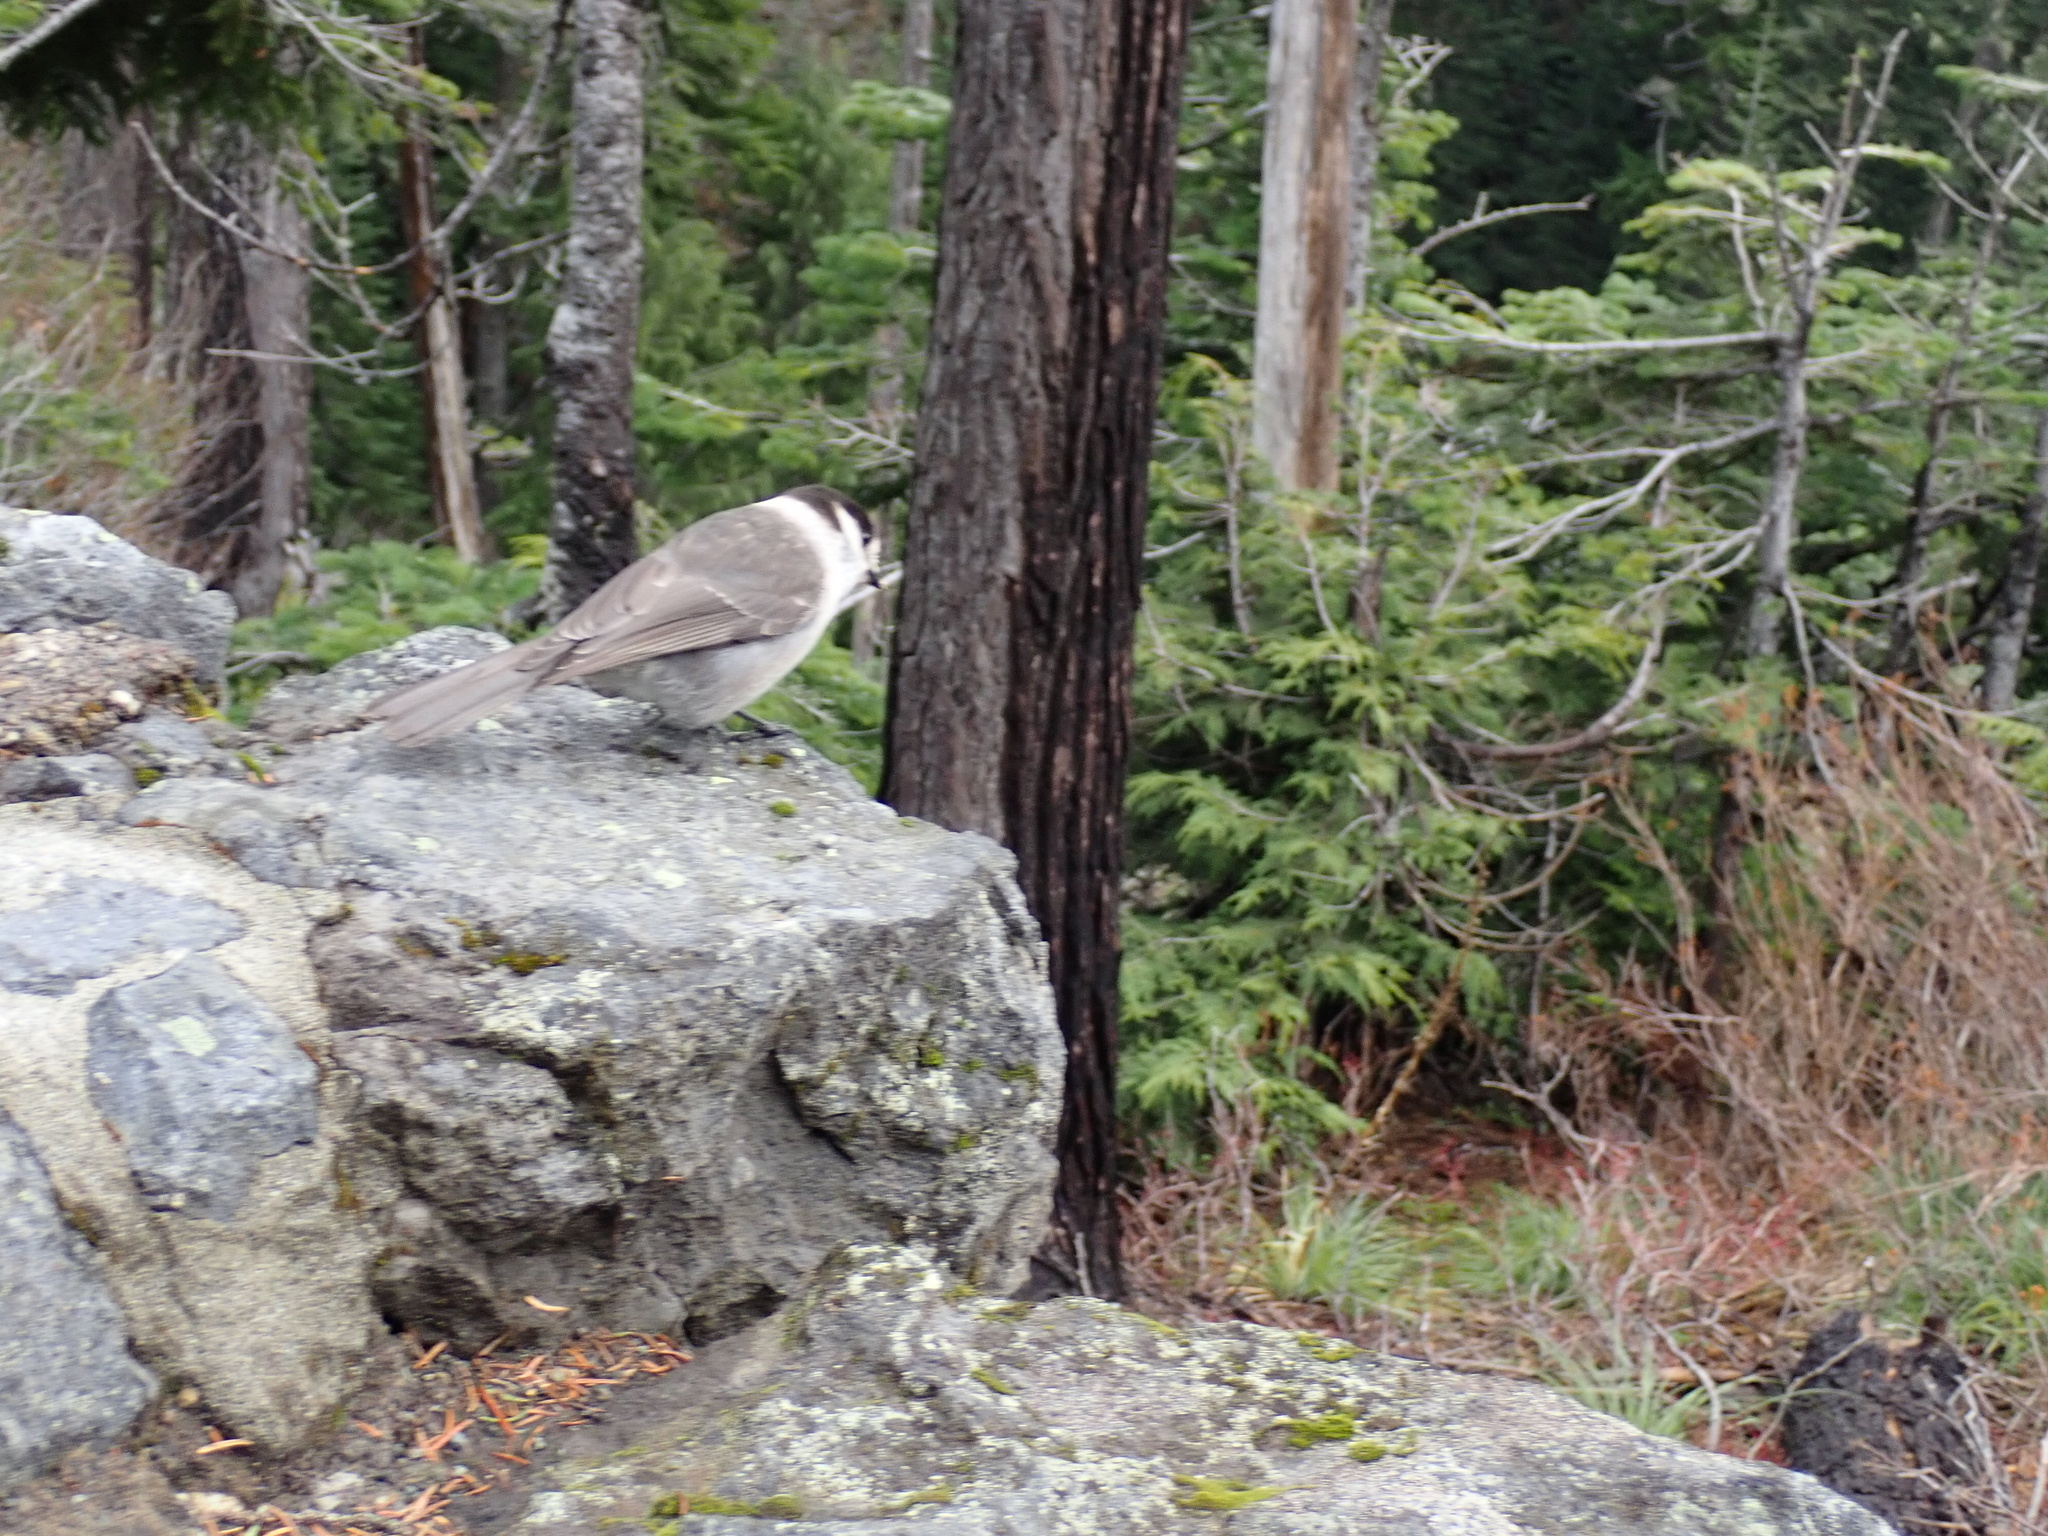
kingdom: Animalia
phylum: Chordata
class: Aves
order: Passeriformes
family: Corvidae
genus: Perisoreus
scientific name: Perisoreus canadensis
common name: Gray jay
